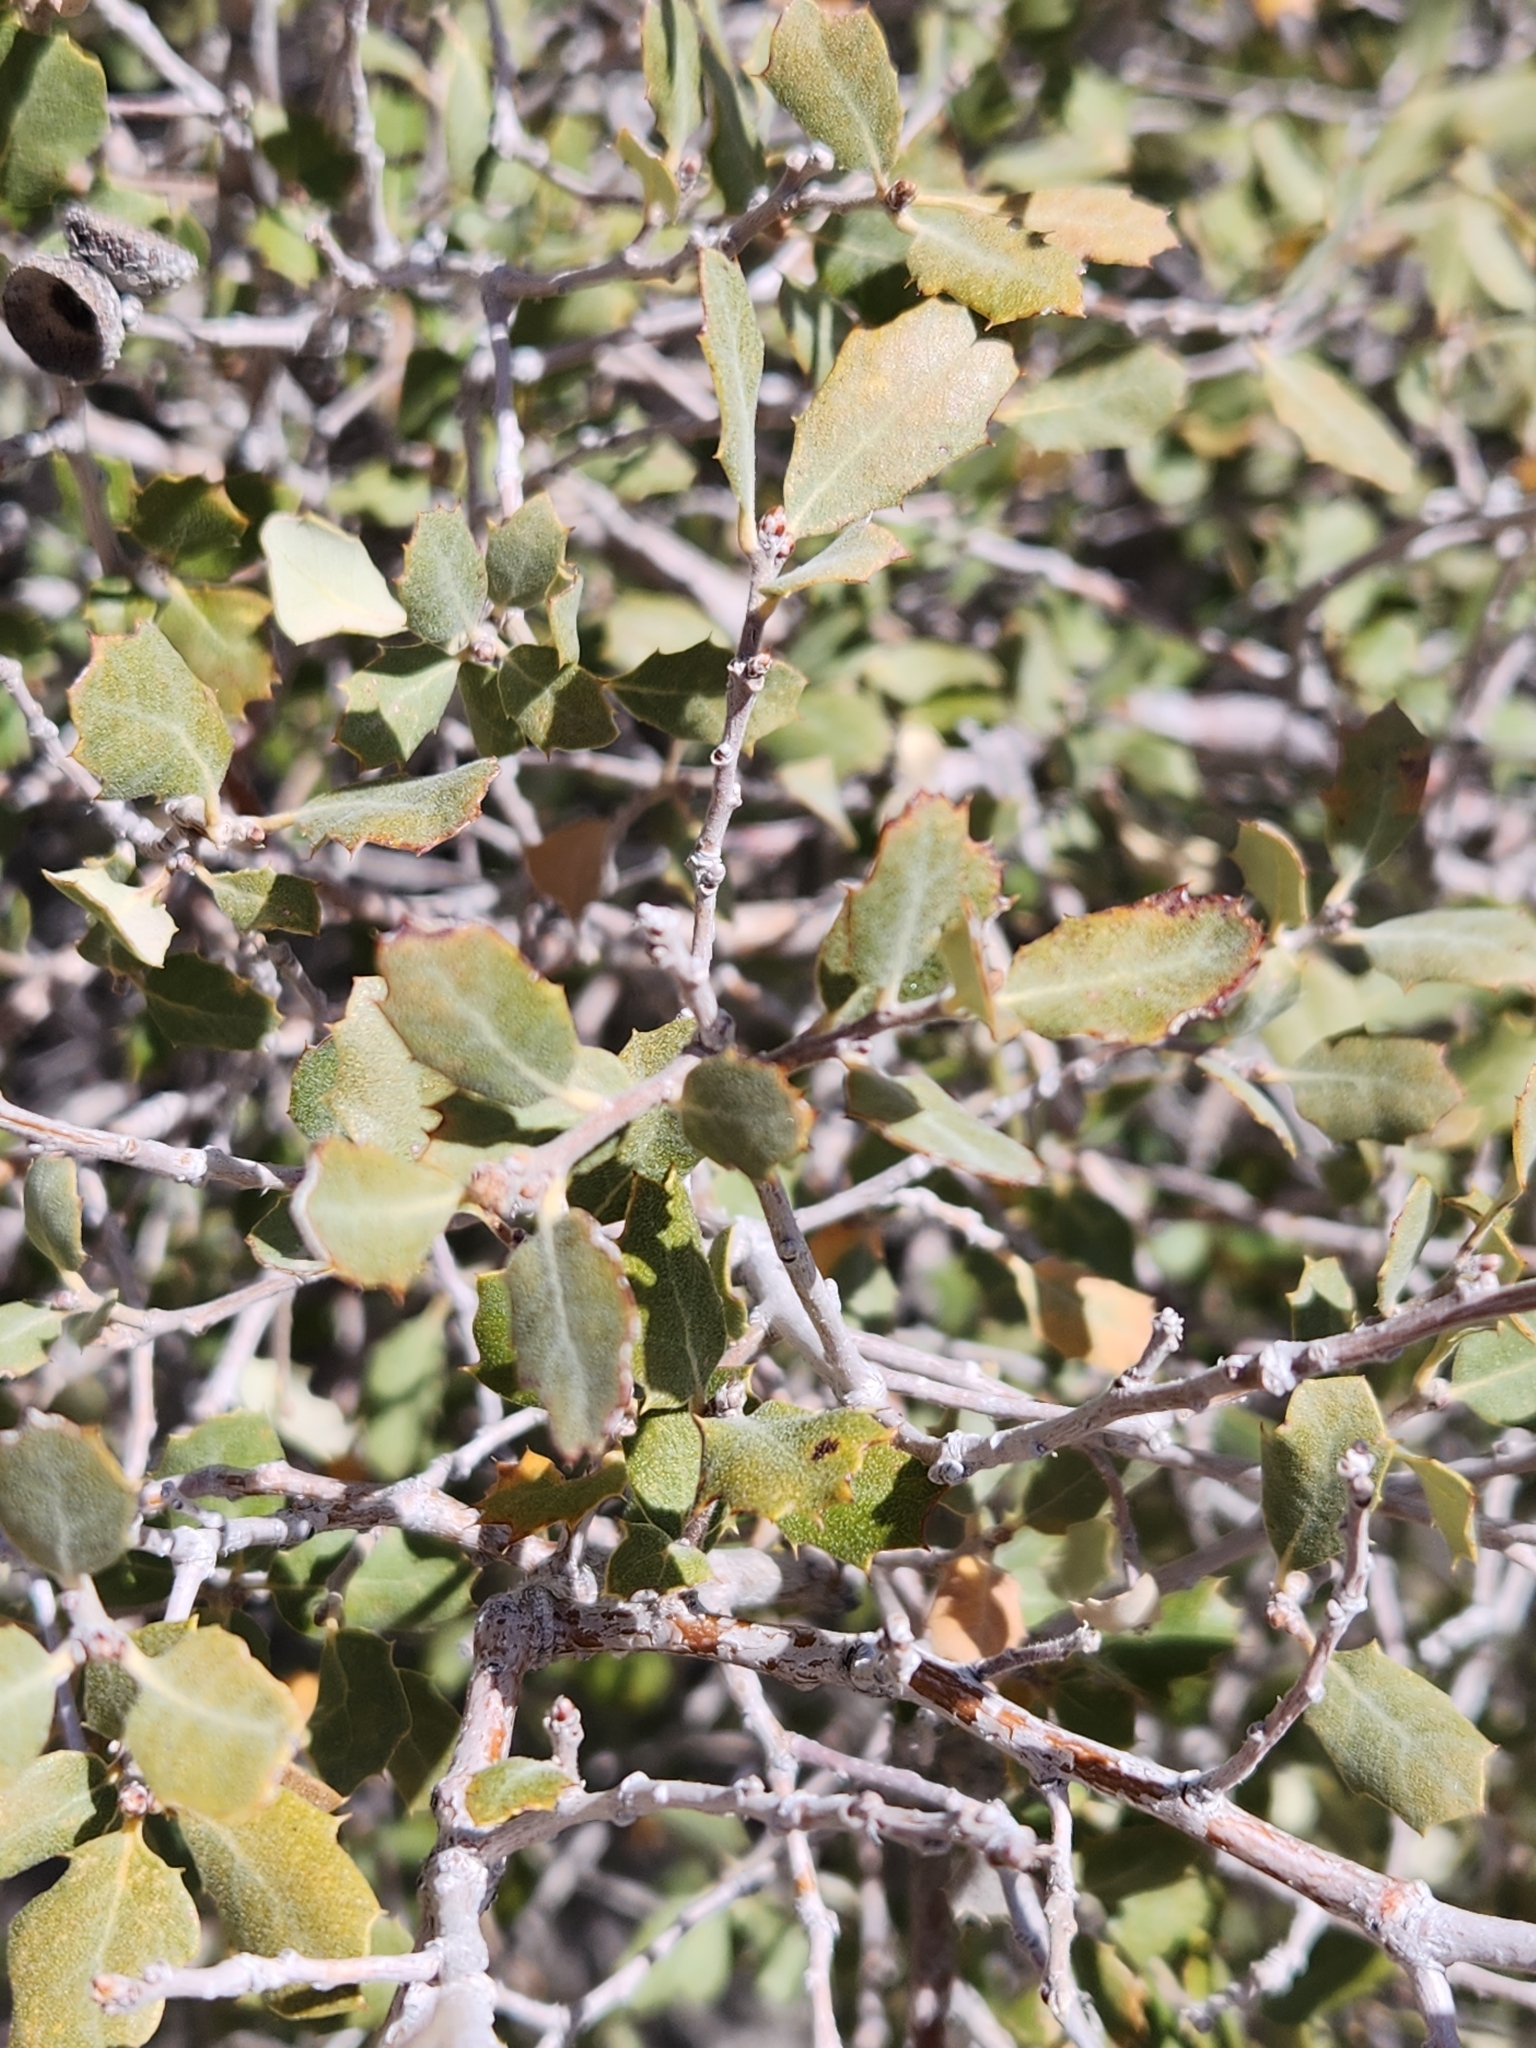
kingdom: Plantae
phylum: Tracheophyta
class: Magnoliopsida
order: Fagales
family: Fagaceae
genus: Quercus
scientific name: Quercus cornelius-mulleri
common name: Muller oak
